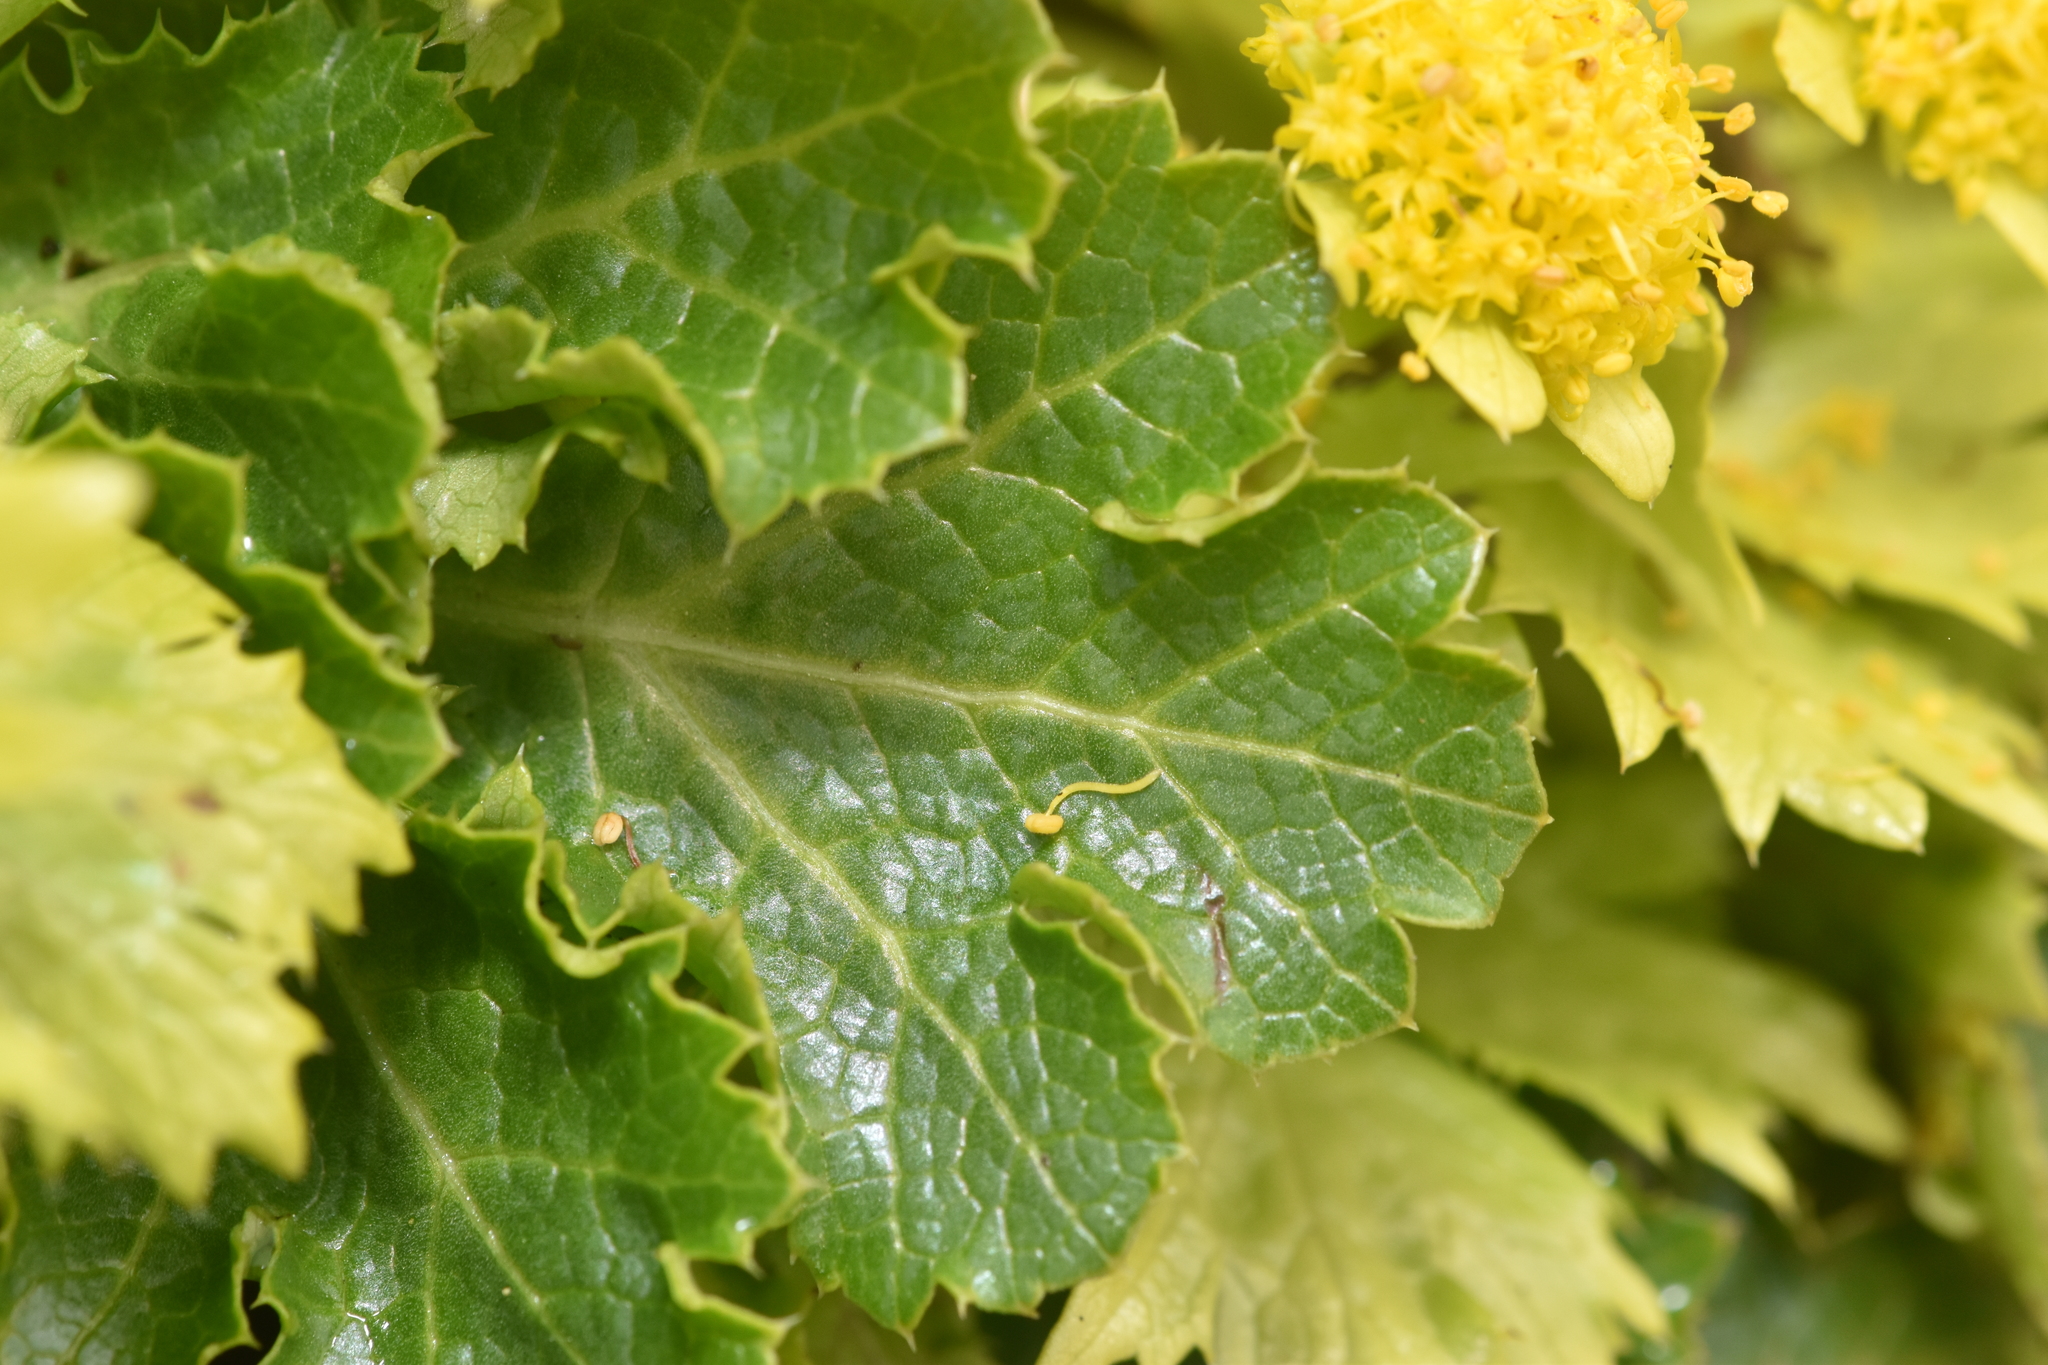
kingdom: Plantae
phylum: Tracheophyta
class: Magnoliopsida
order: Apiales
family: Apiaceae
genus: Sanicula
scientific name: Sanicula arctopoides
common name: Footsteps-of-spring
